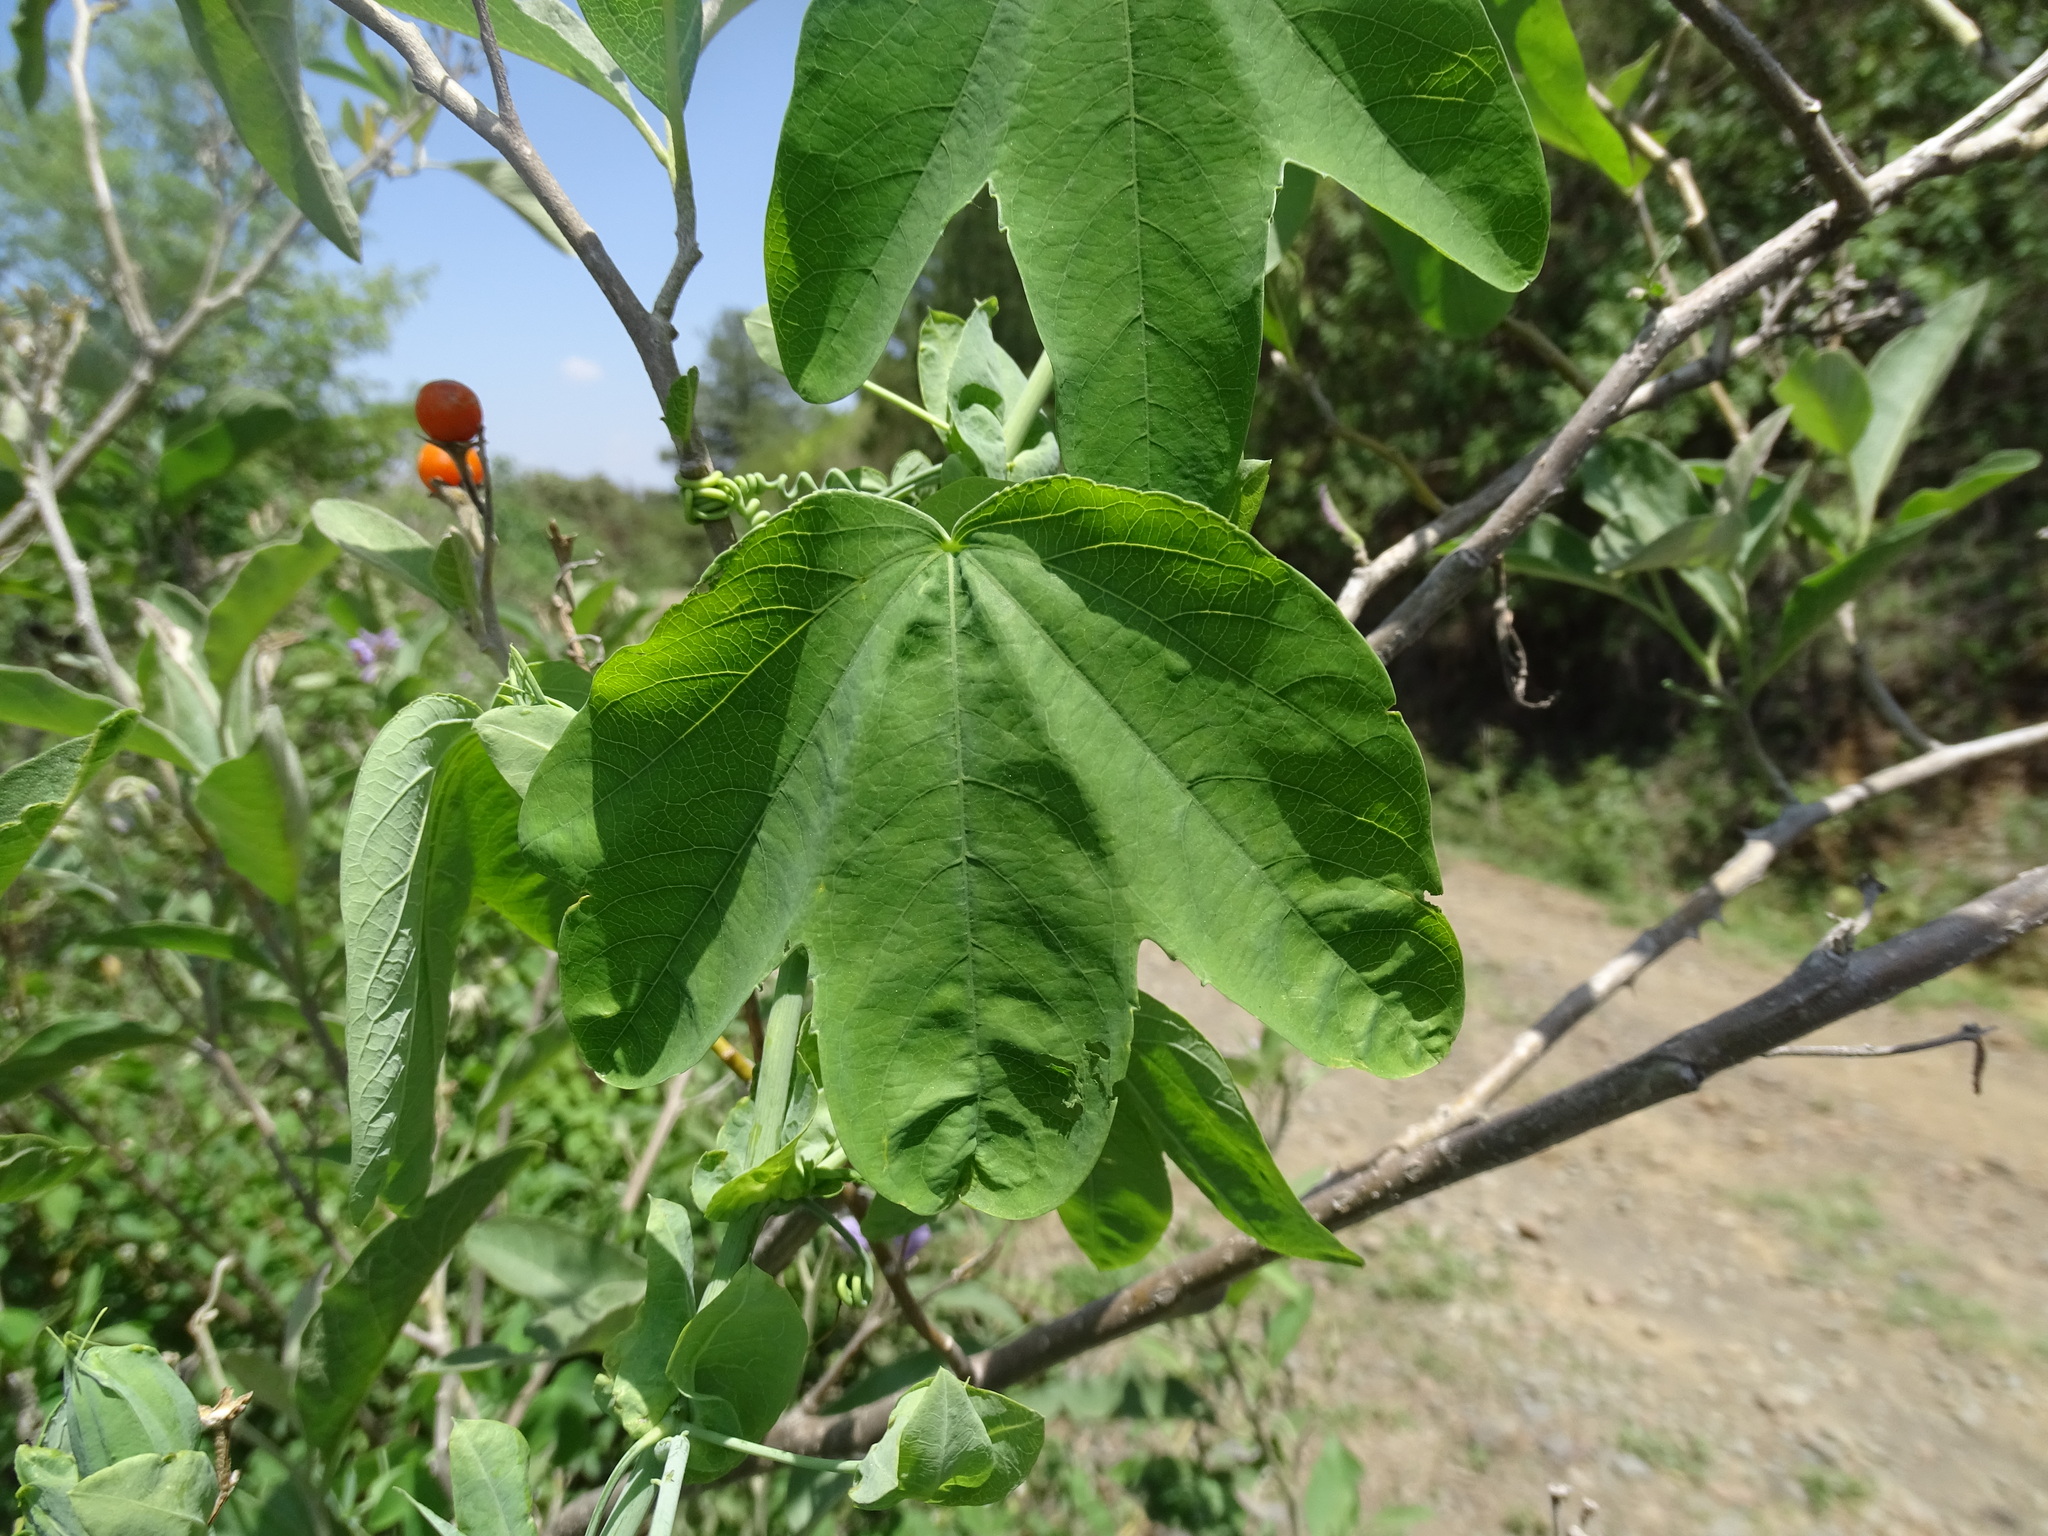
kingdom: Plantae
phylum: Tracheophyta
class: Magnoliopsida
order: Malpighiales
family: Passifloraceae
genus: Passiflora
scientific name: Passiflora subpeltata
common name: White passionflower
